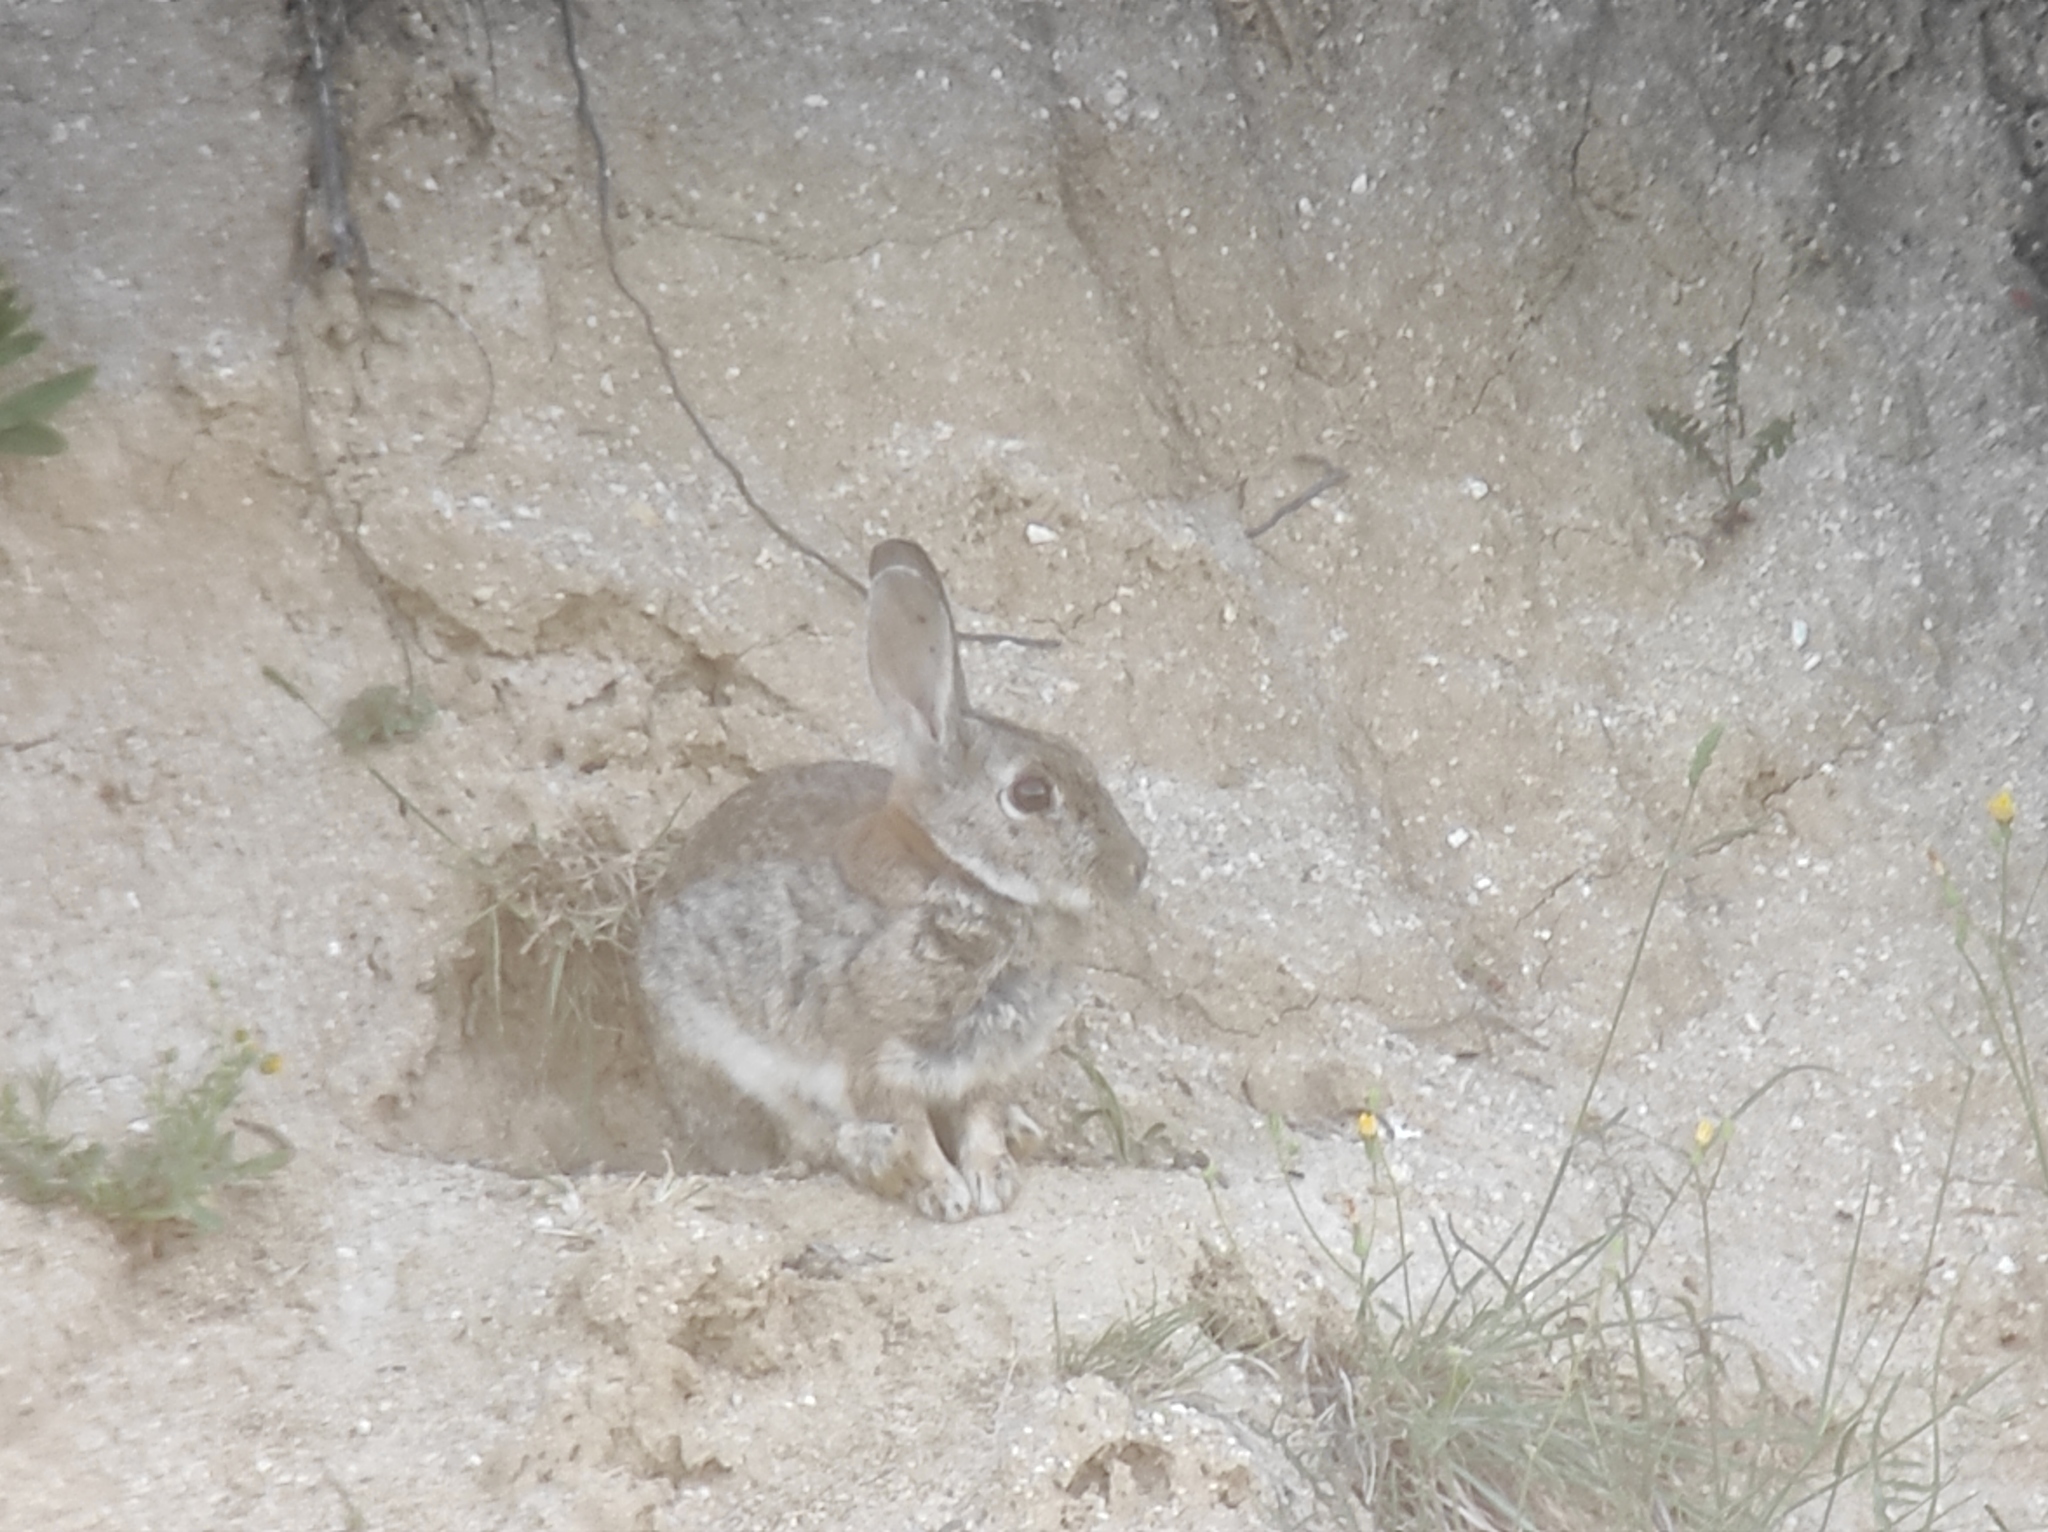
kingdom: Animalia
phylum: Chordata
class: Mammalia
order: Lagomorpha
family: Leporidae
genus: Oryctolagus
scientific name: Oryctolagus cuniculus
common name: European rabbit
